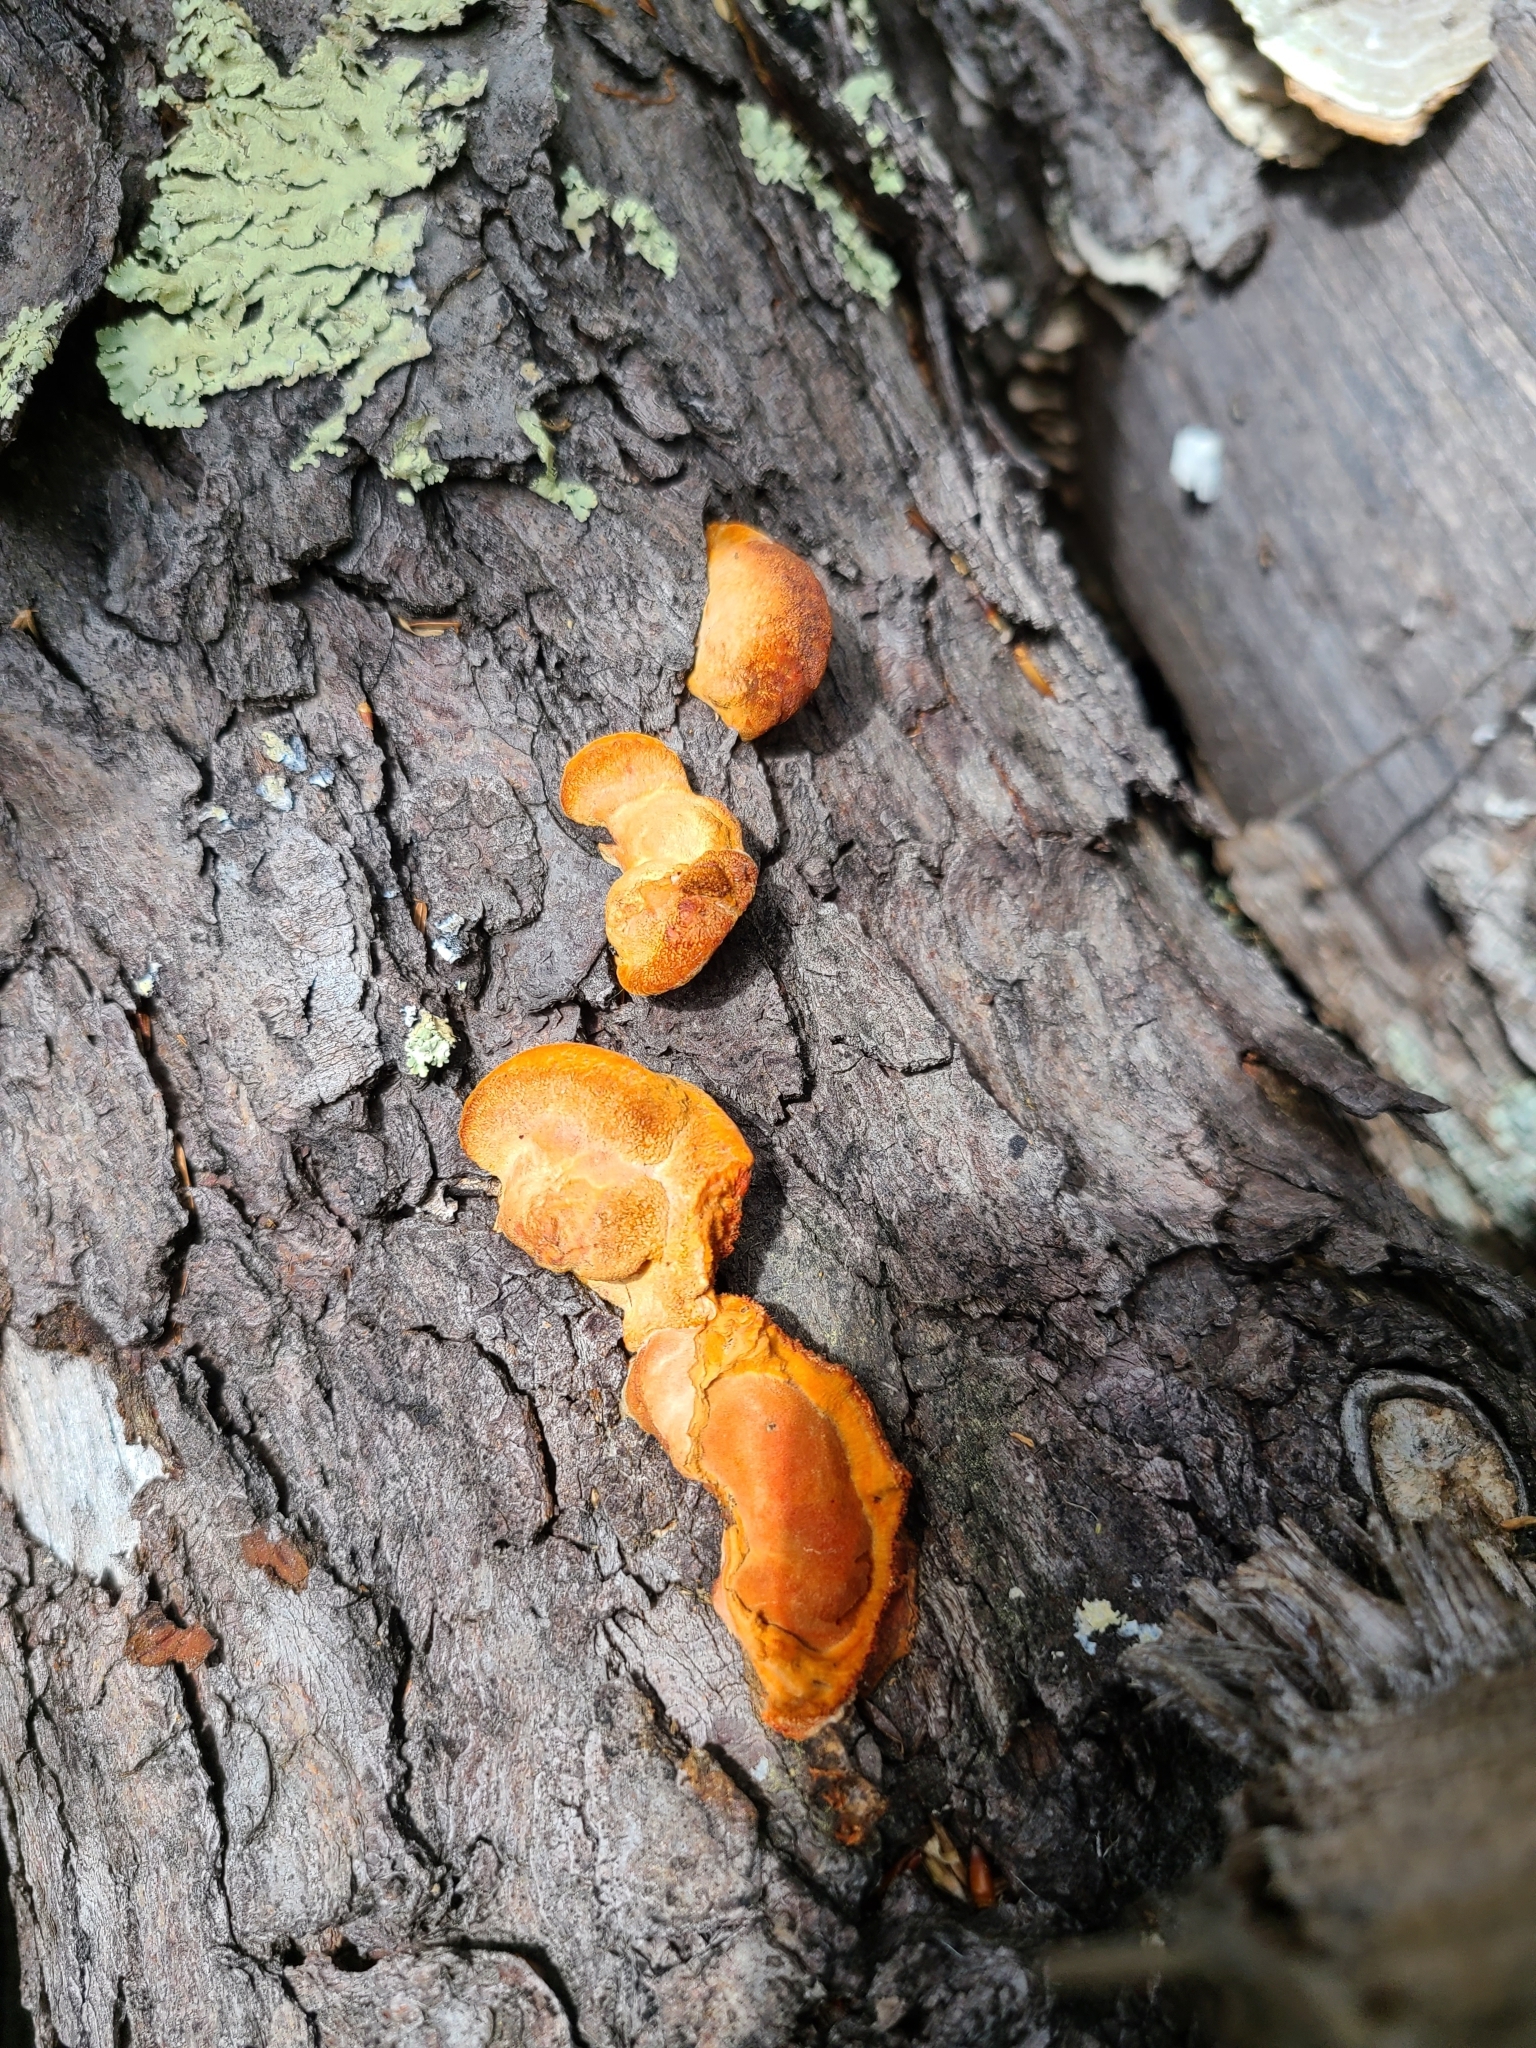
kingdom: Fungi
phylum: Basidiomycota
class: Agaricomycetes
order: Polyporales
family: Polyporaceae
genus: Trametes
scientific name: Trametes cinnabarina
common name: Northern cinnabar polypore
